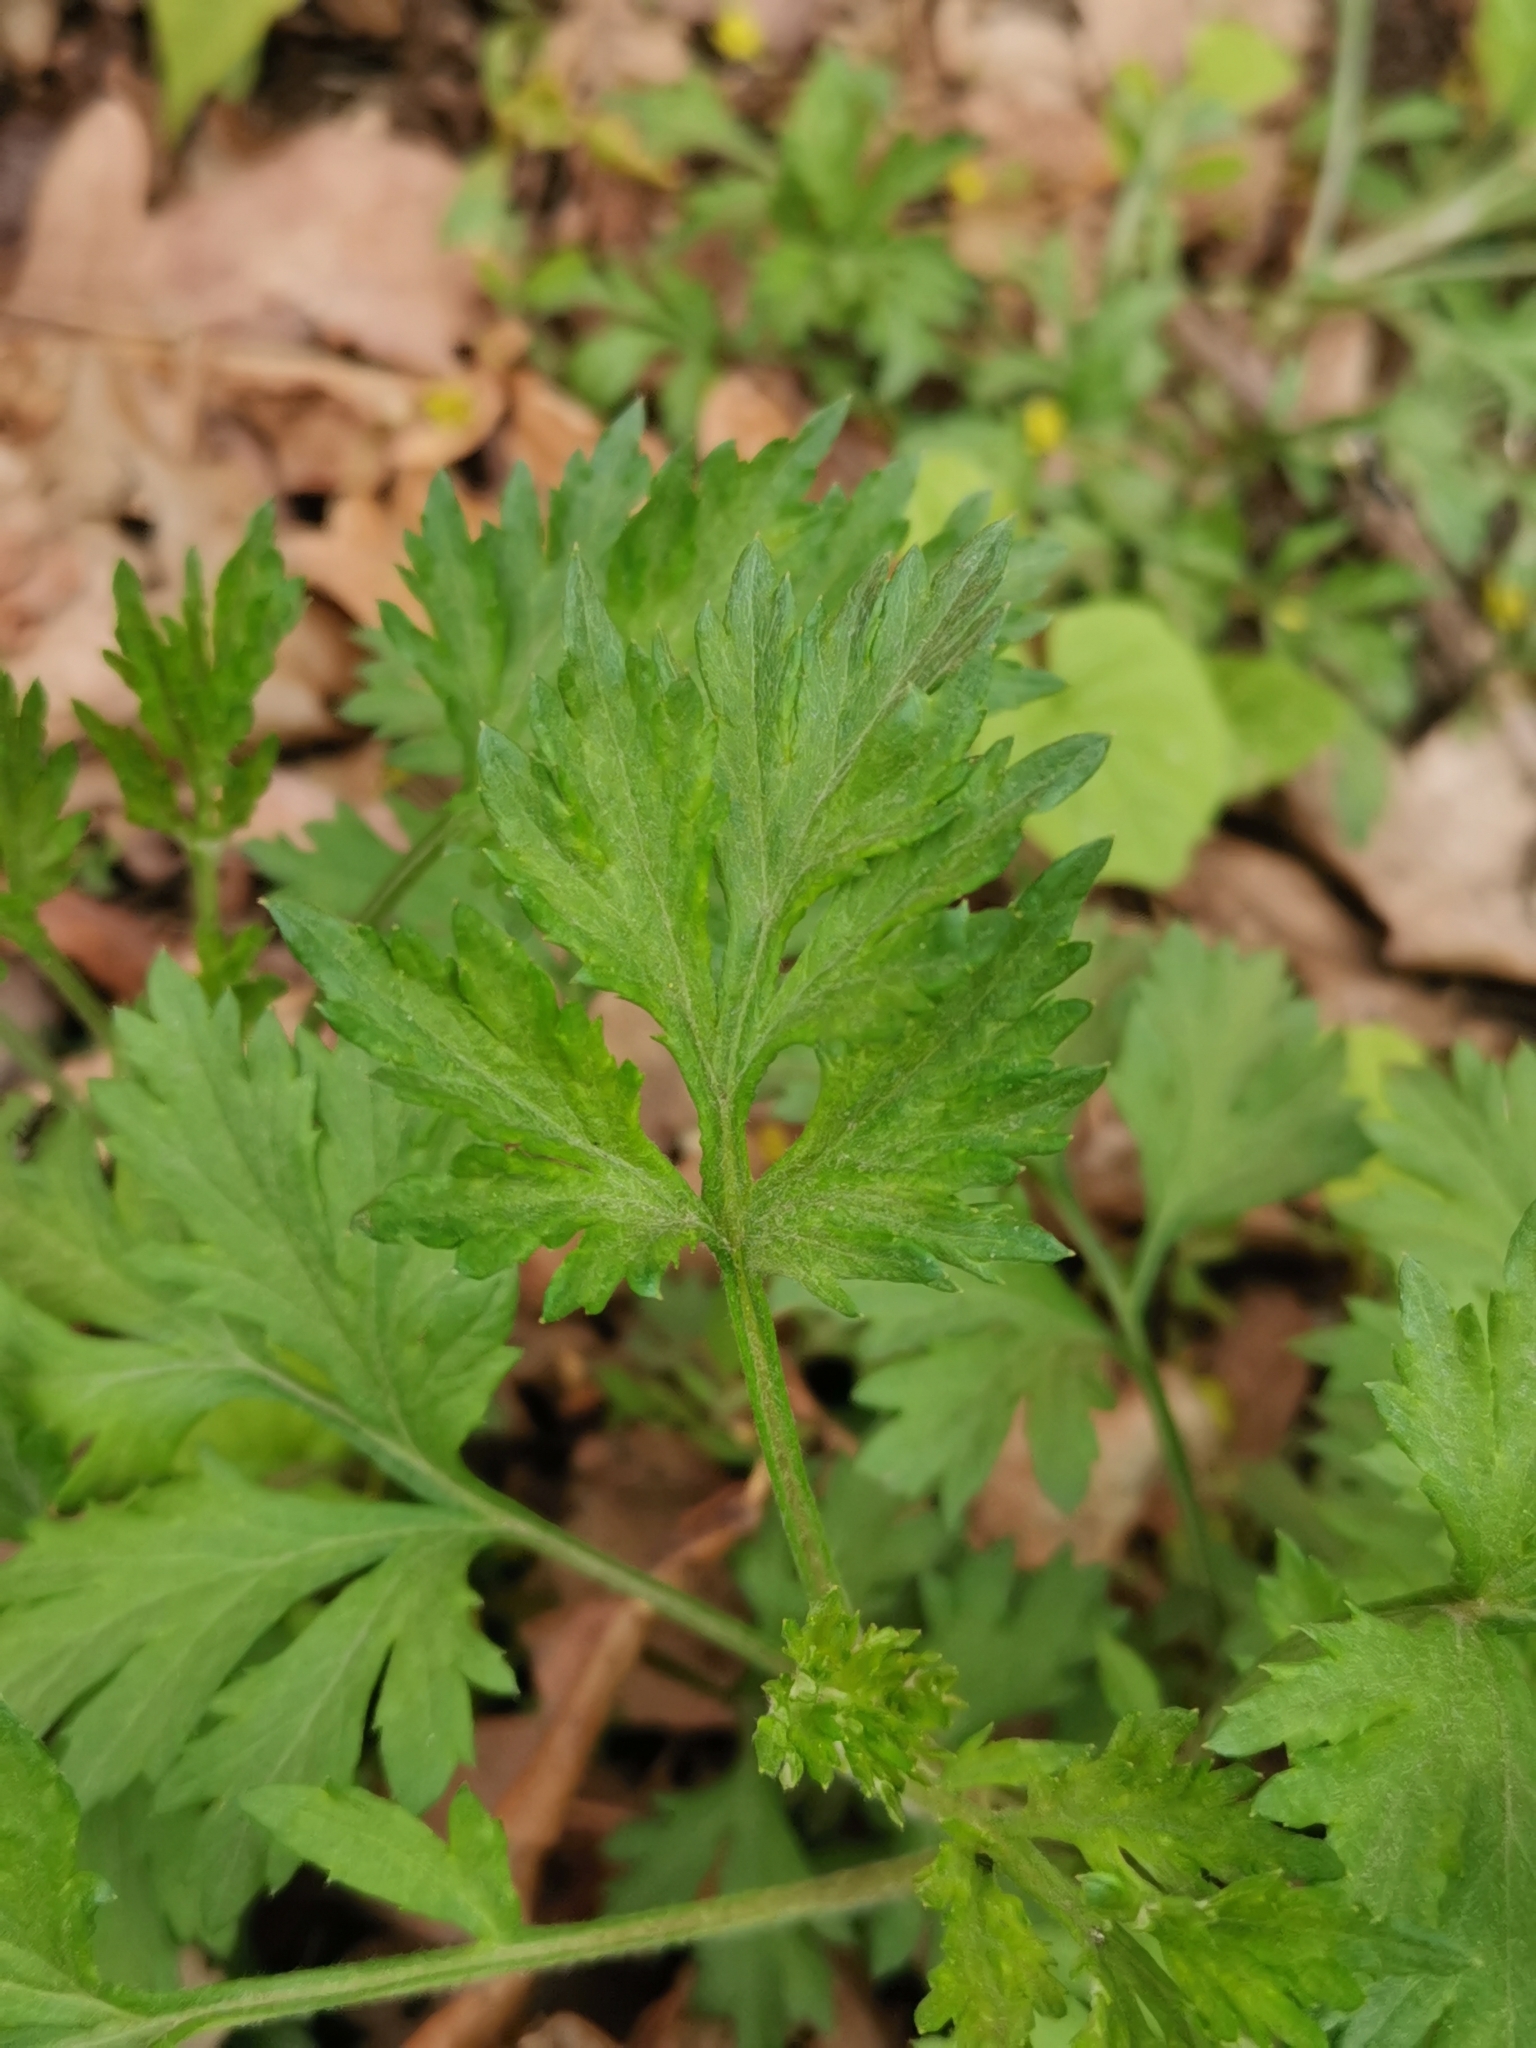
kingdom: Plantae
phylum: Tracheophyta
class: Magnoliopsida
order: Asterales
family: Asteraceae
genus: Artemisia
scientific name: Artemisia vulgaris
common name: Mugwort
